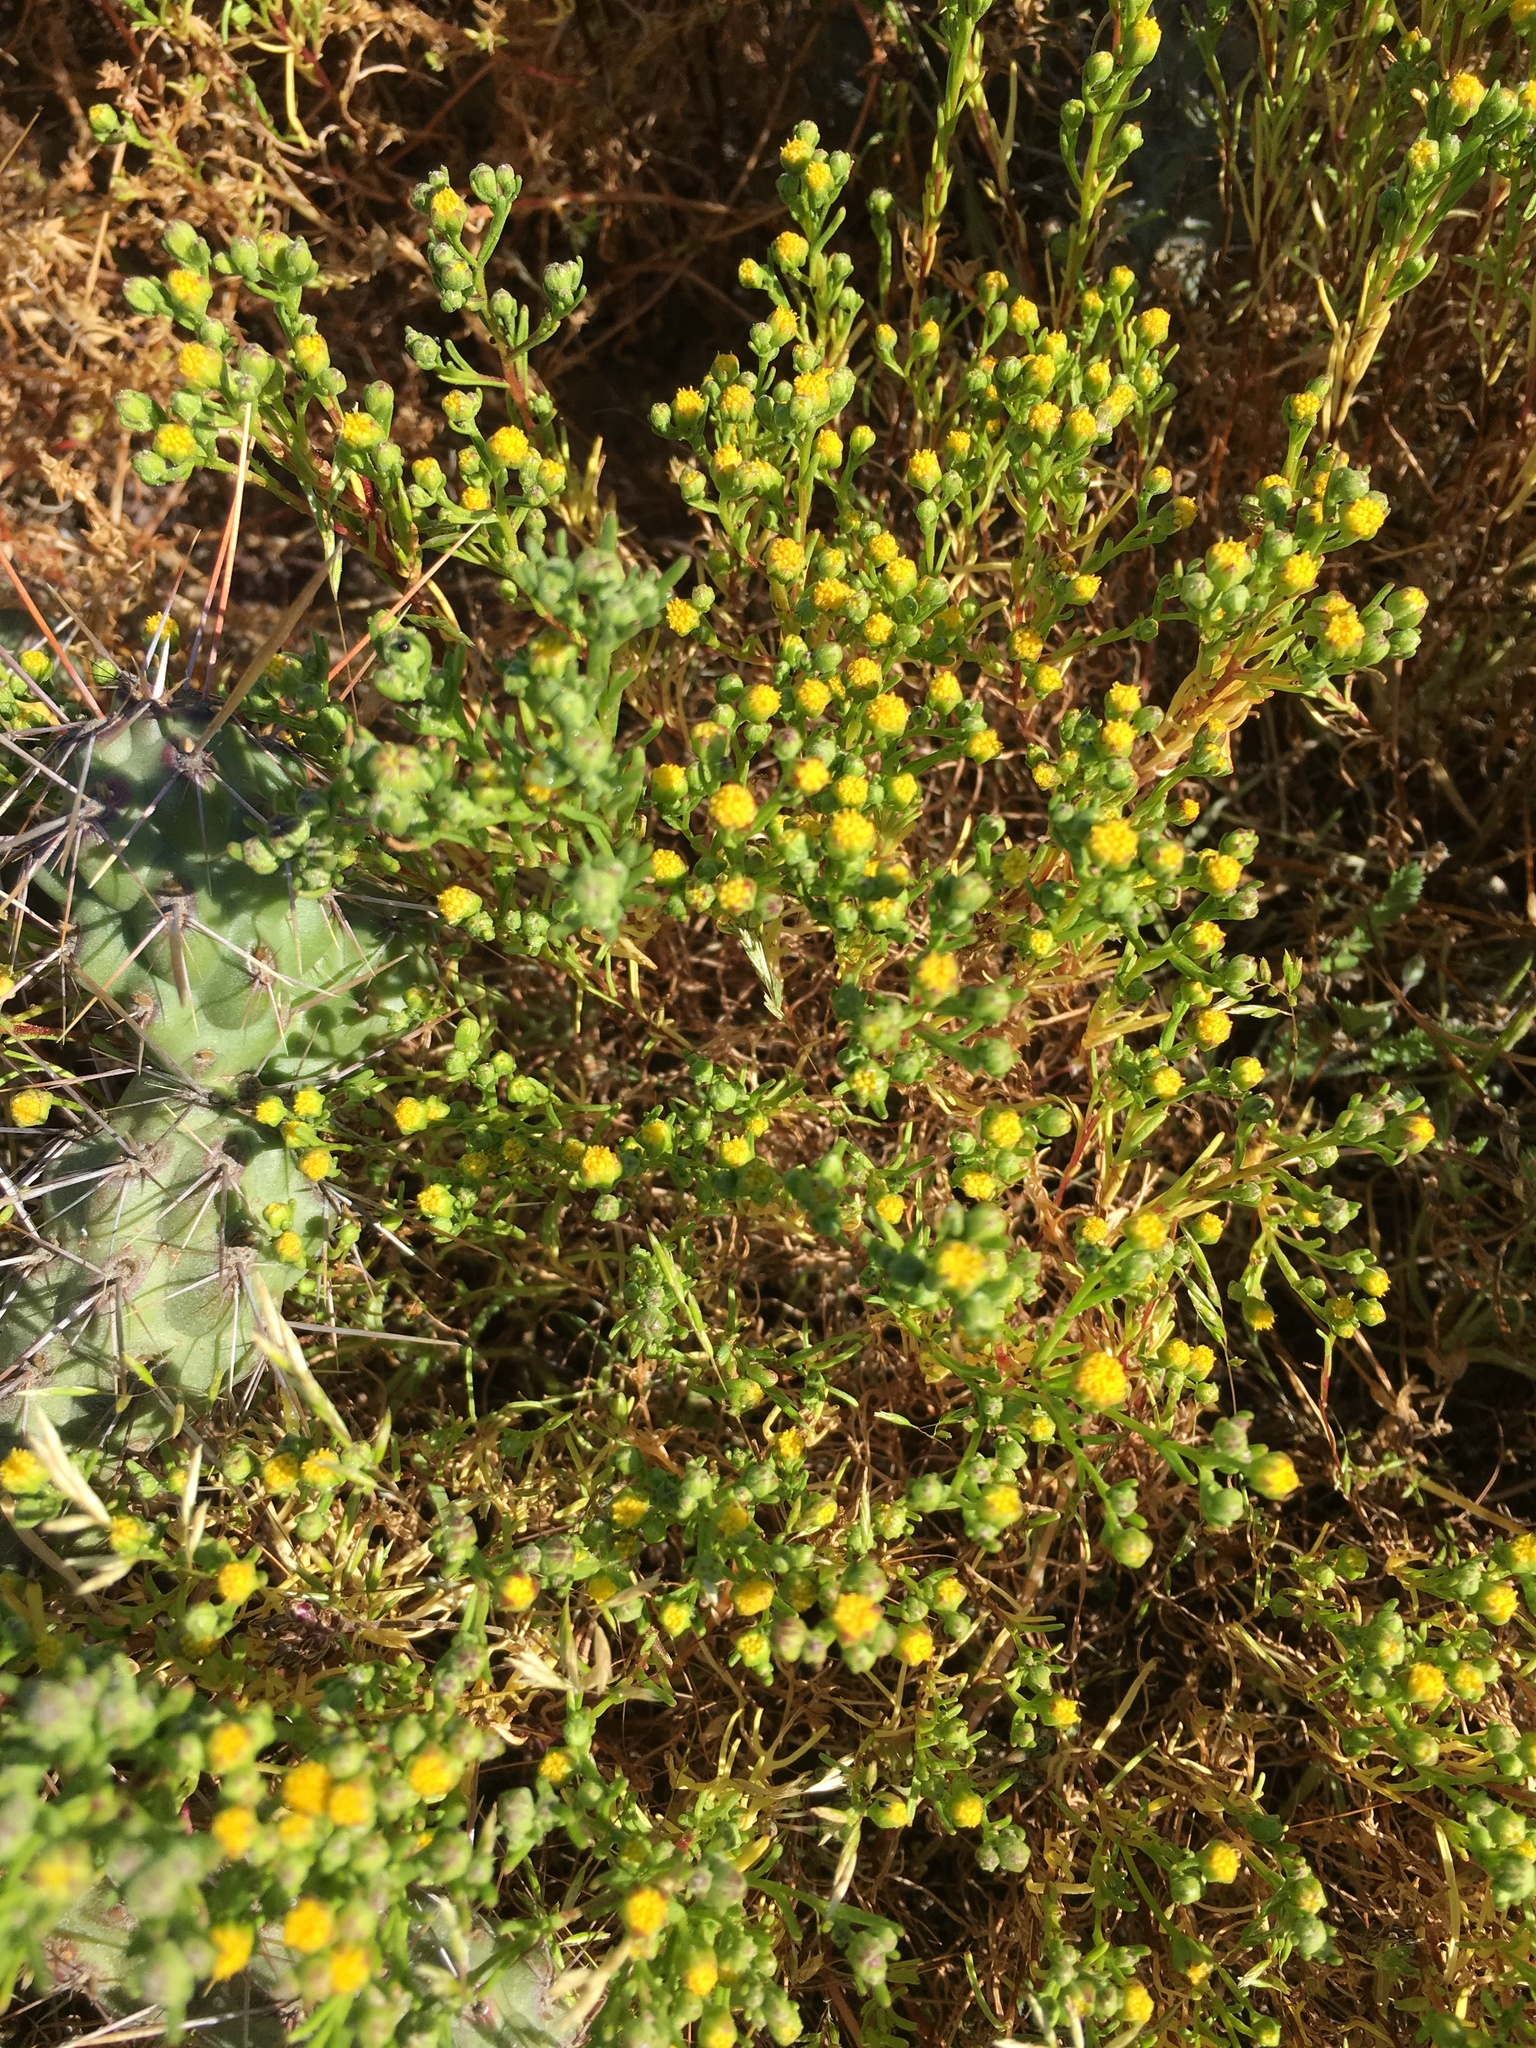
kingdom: Plantae
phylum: Tracheophyta
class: Magnoliopsida
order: Asterales
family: Asteraceae
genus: Amblyopappus
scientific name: Amblyopappus pusillus
